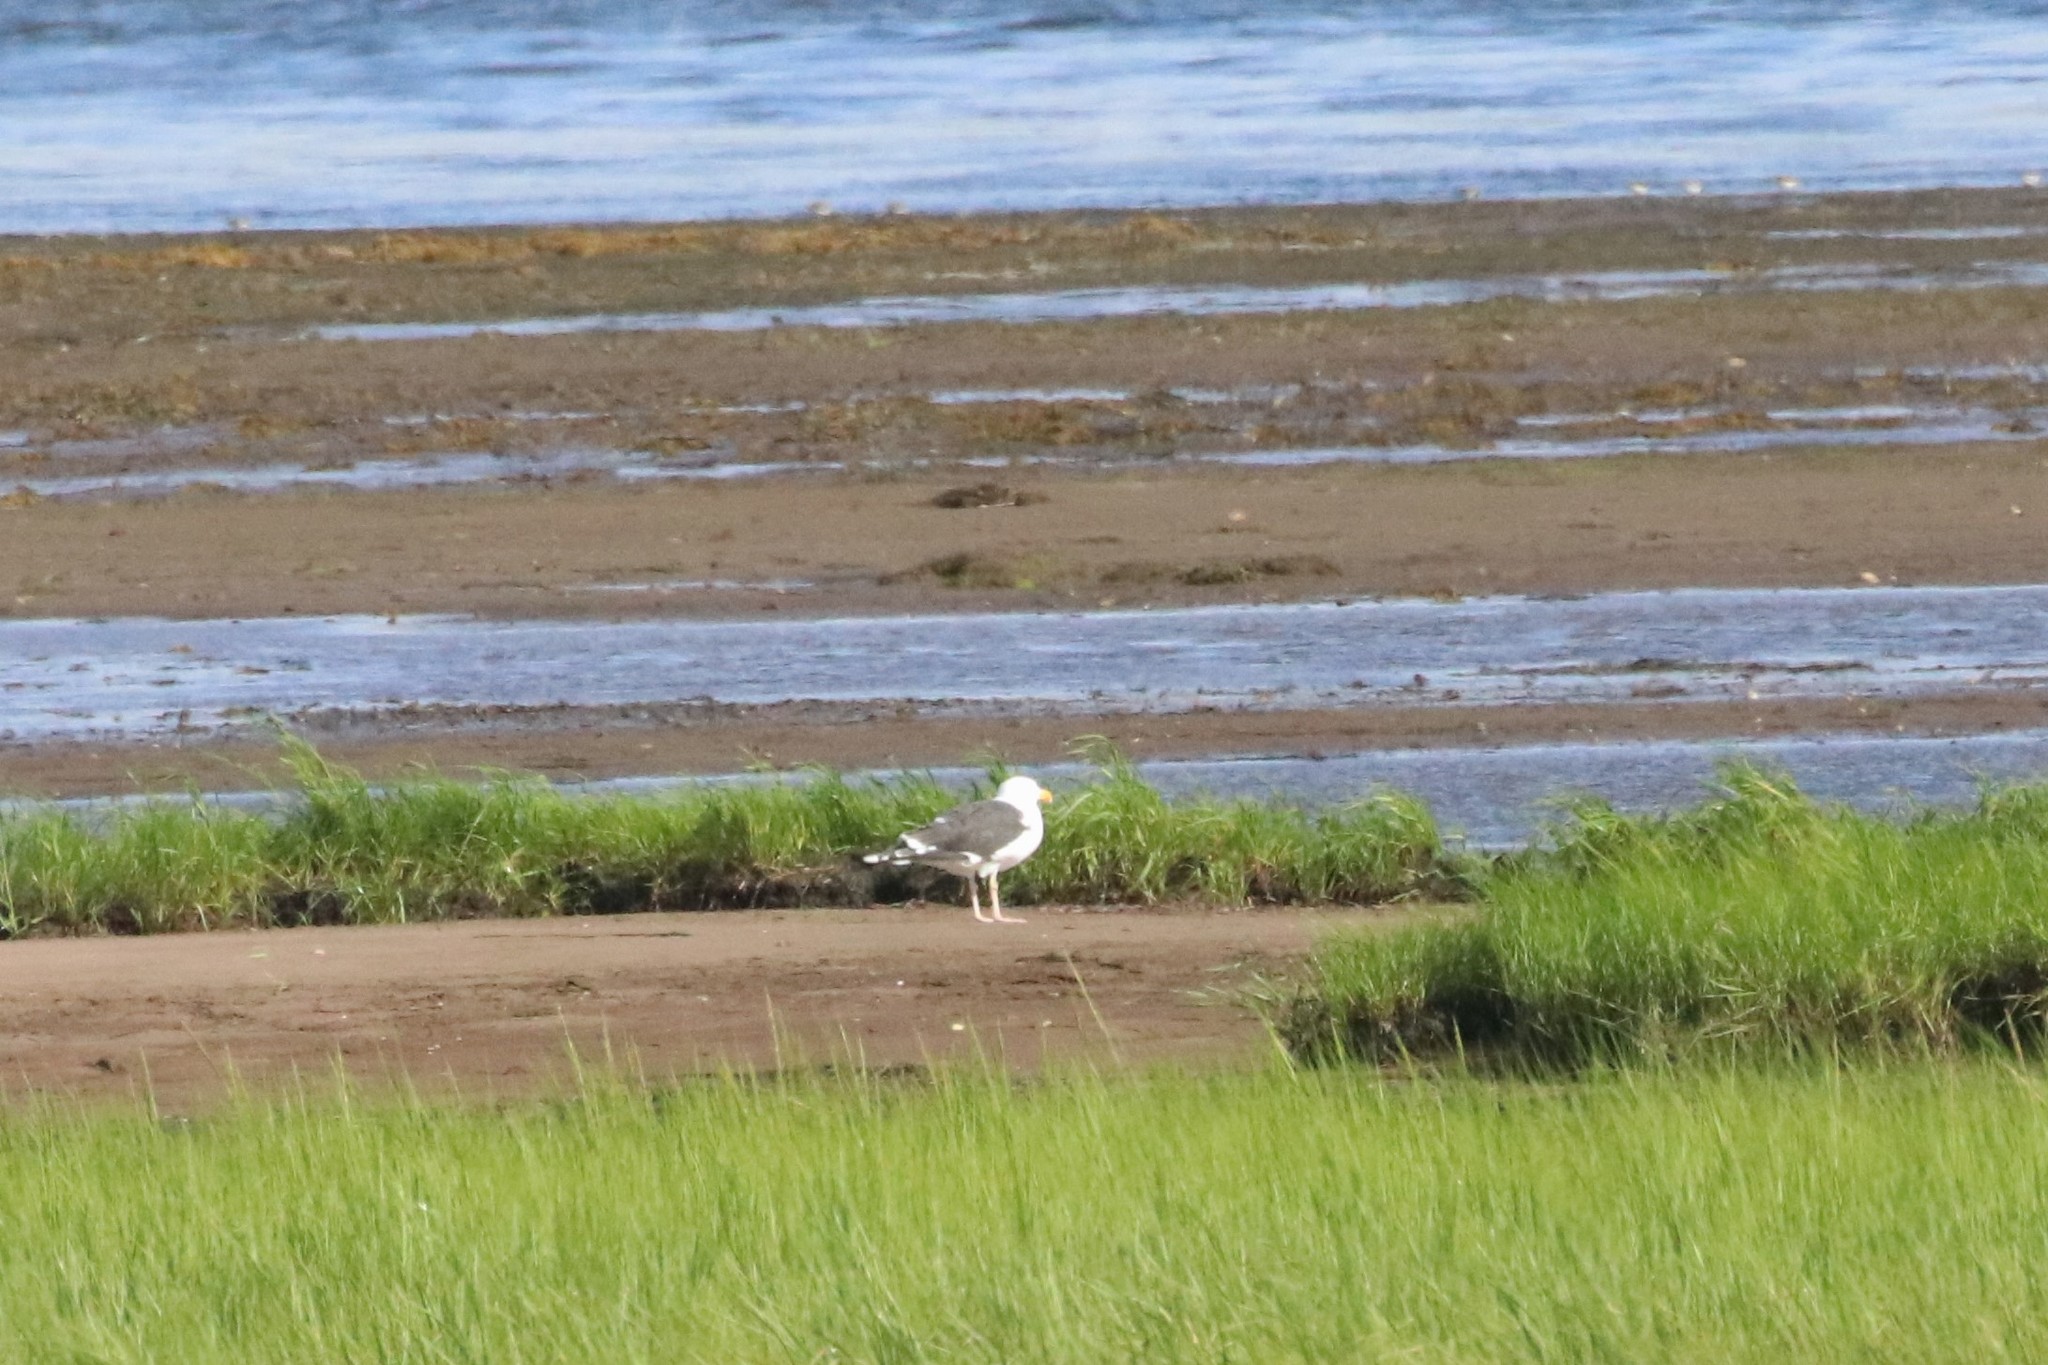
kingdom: Animalia
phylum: Chordata
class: Aves
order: Charadriiformes
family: Laridae
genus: Larus
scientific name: Larus marinus
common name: Great black-backed gull
